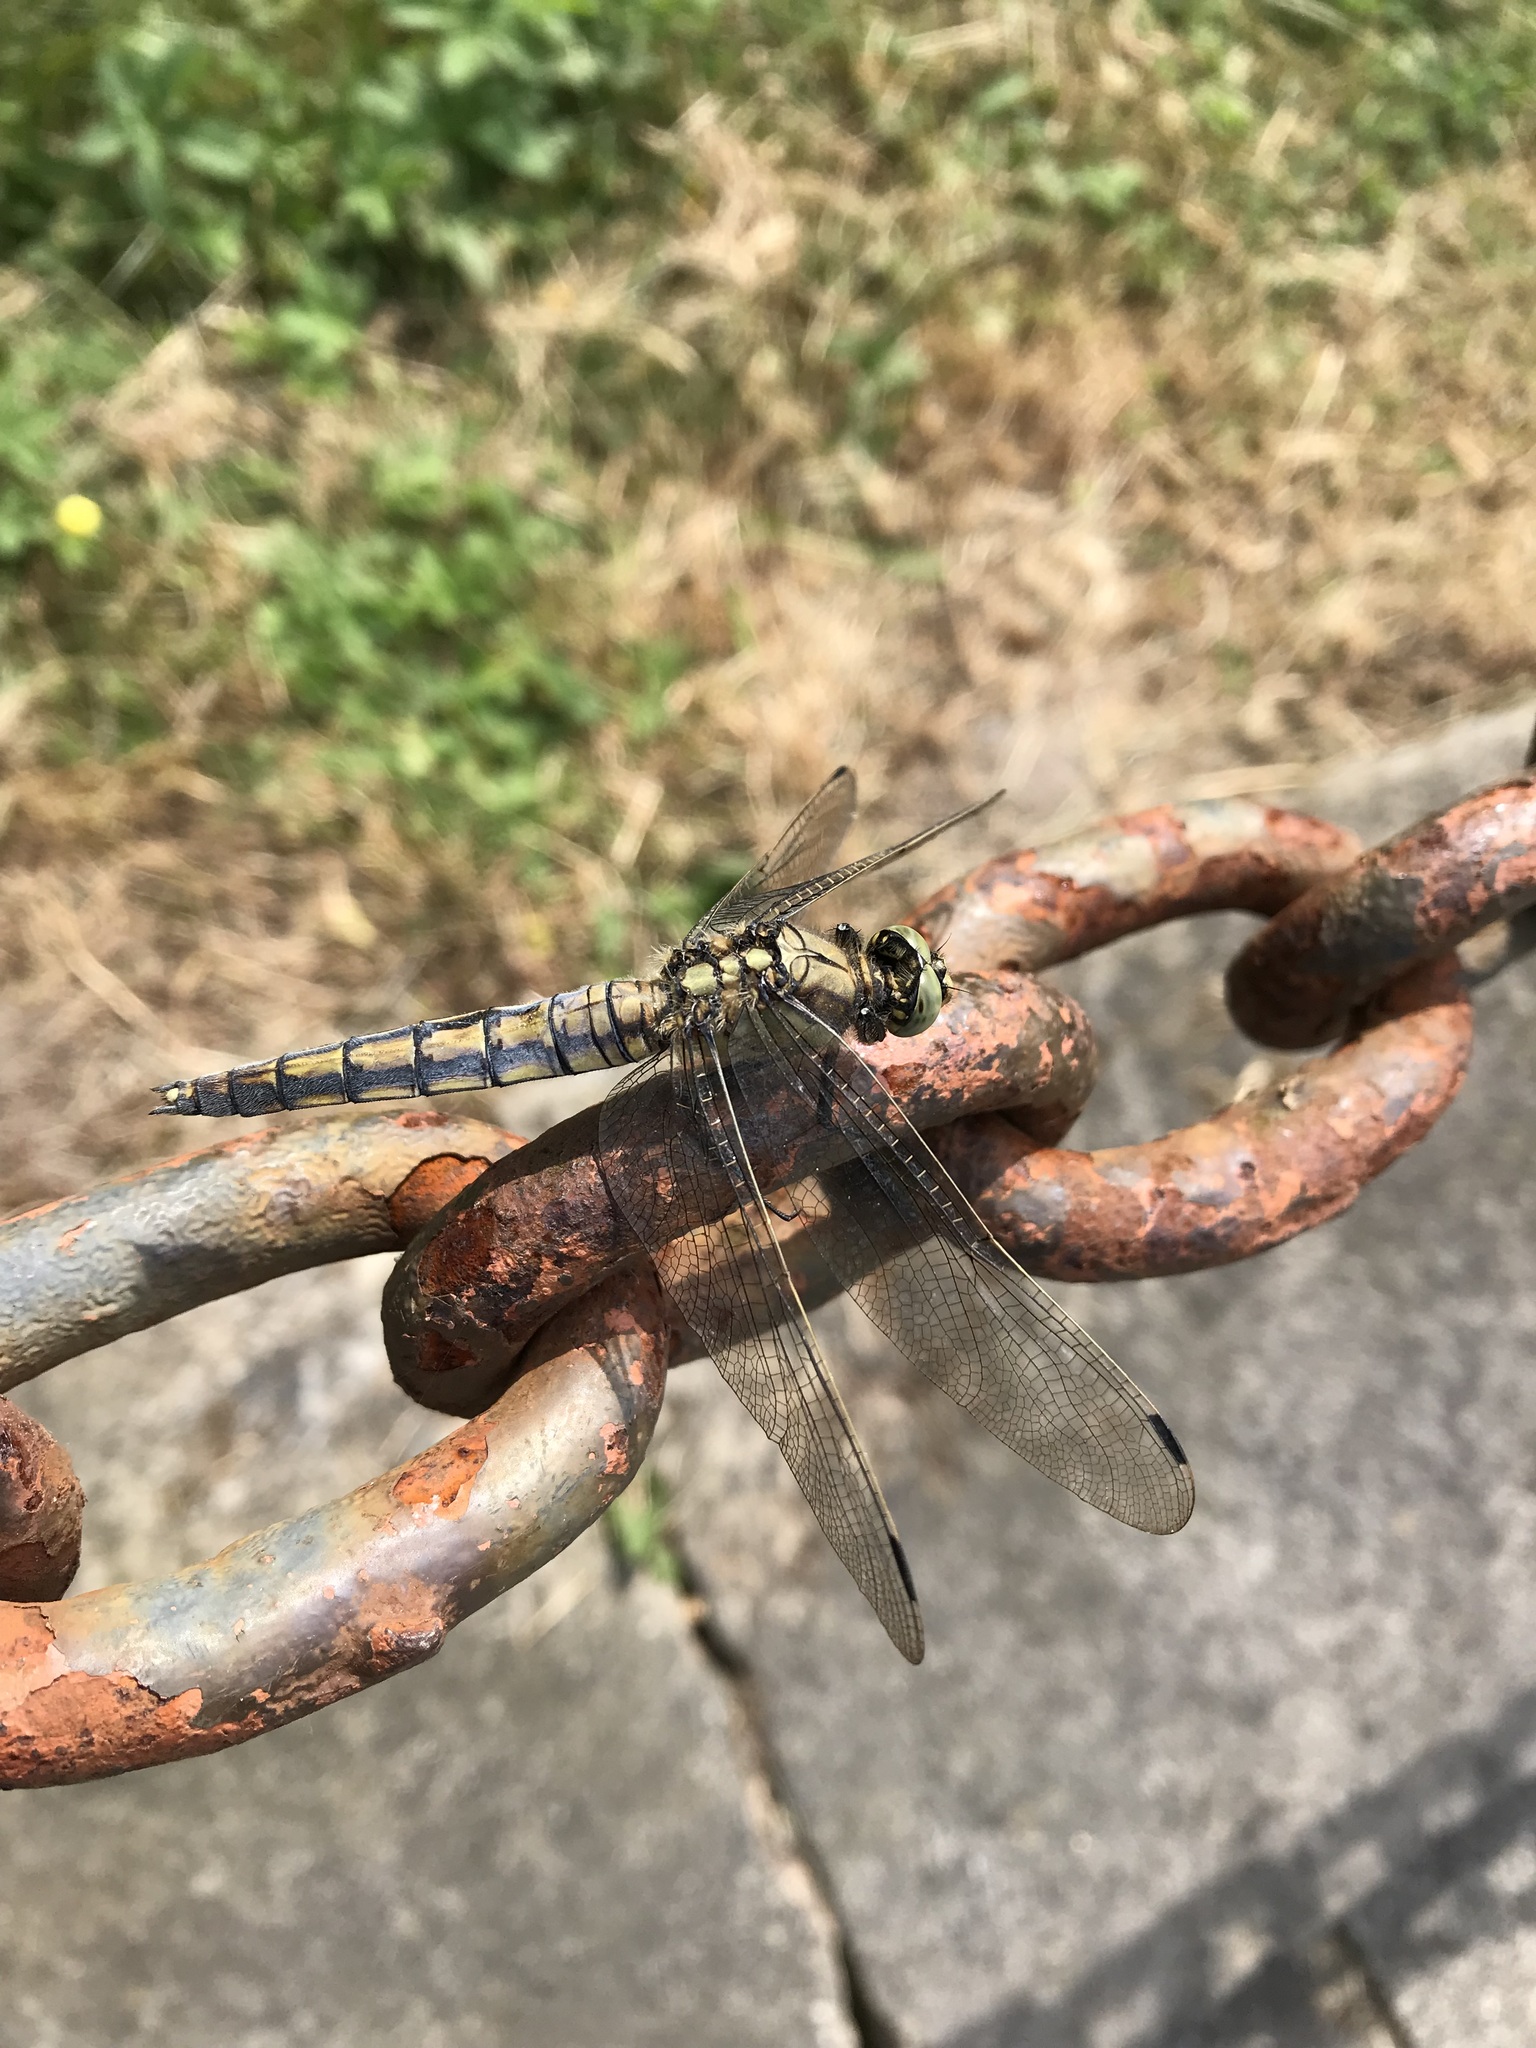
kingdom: Animalia
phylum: Arthropoda
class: Insecta
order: Odonata
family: Libellulidae
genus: Orthetrum
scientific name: Orthetrum cancellatum
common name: Black-tailed skimmer
